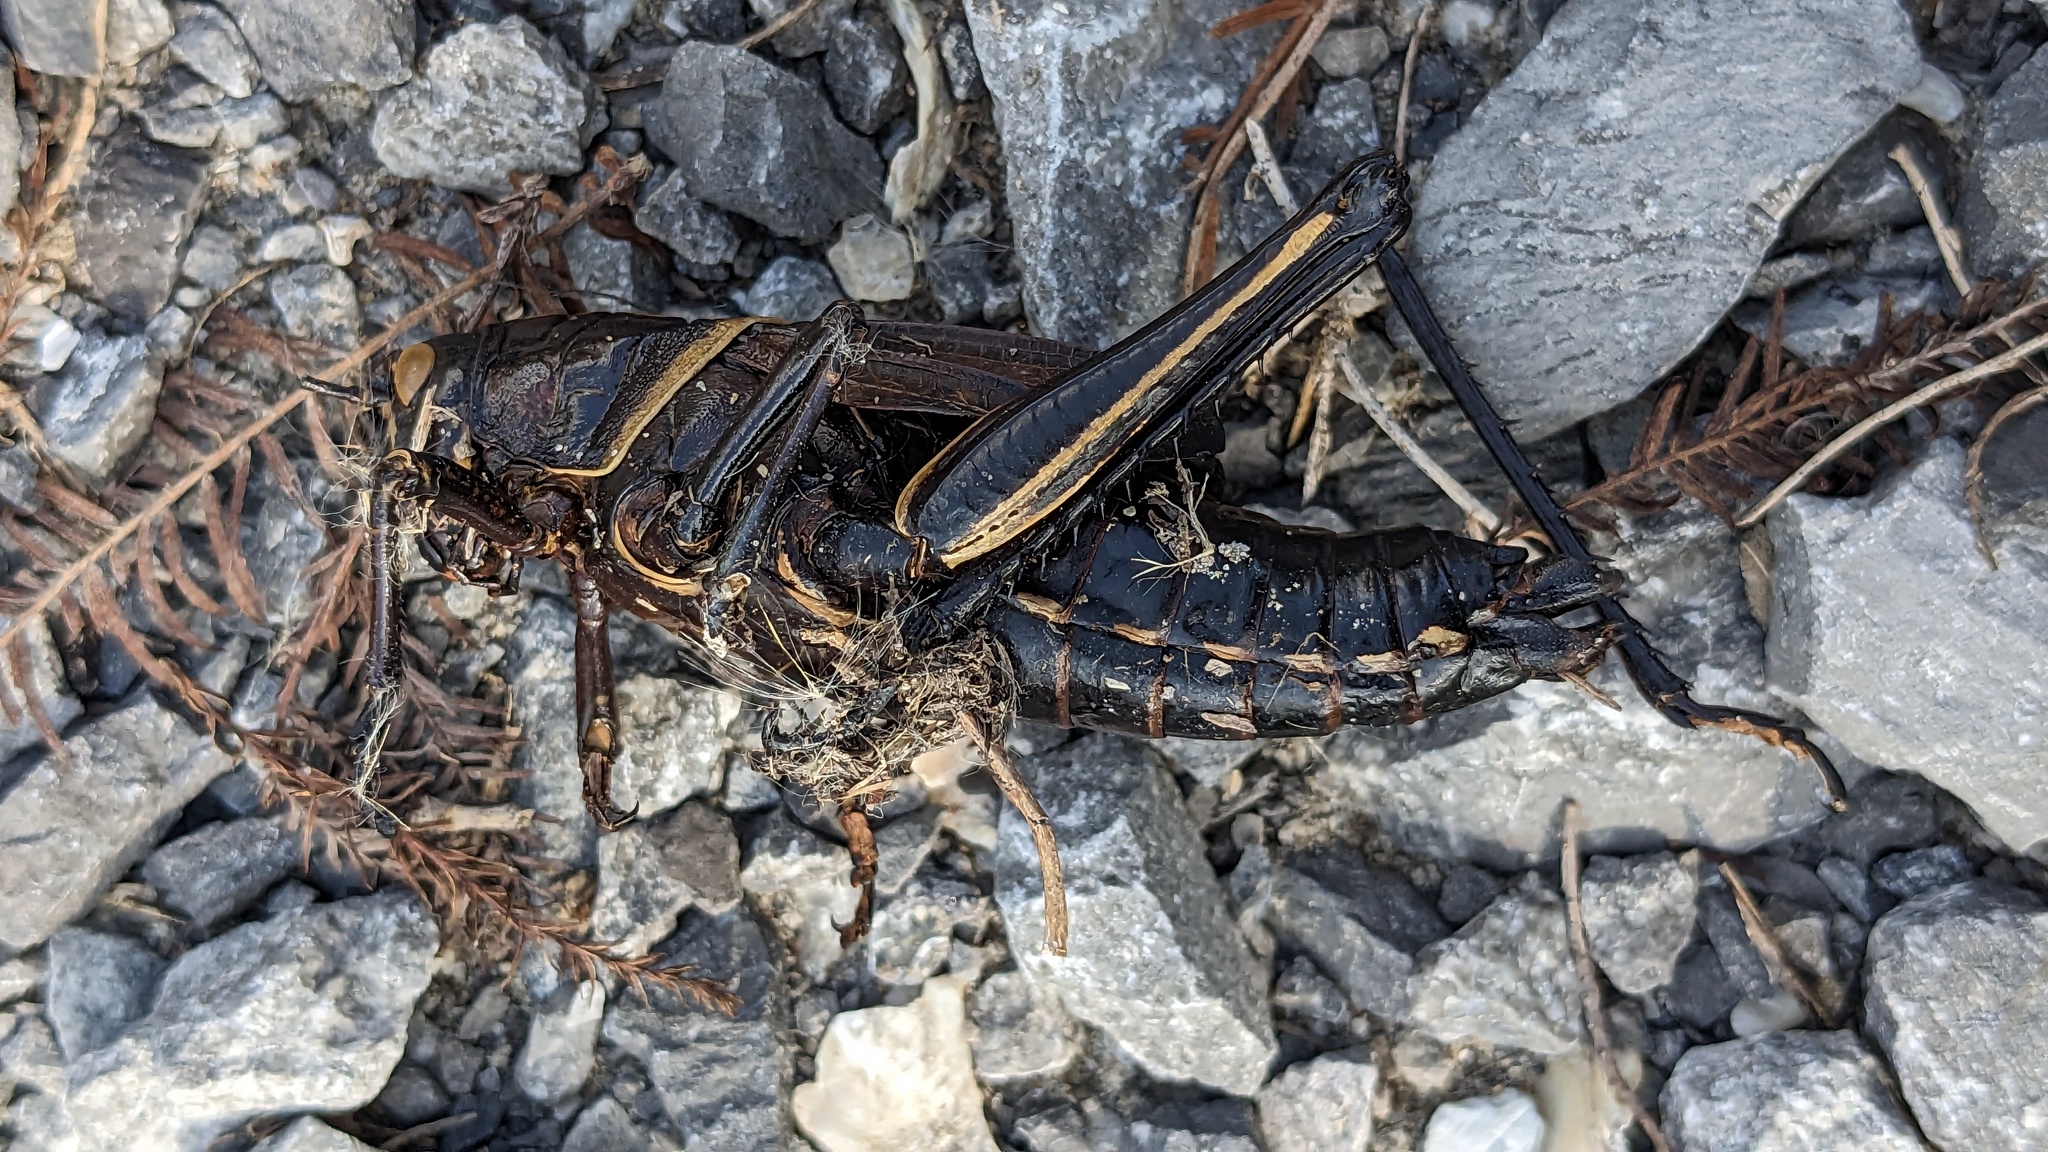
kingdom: Animalia
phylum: Arthropoda
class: Insecta
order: Orthoptera
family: Romaleidae
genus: Romalea
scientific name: Romalea microptera
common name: Eastern lubber grasshopper
